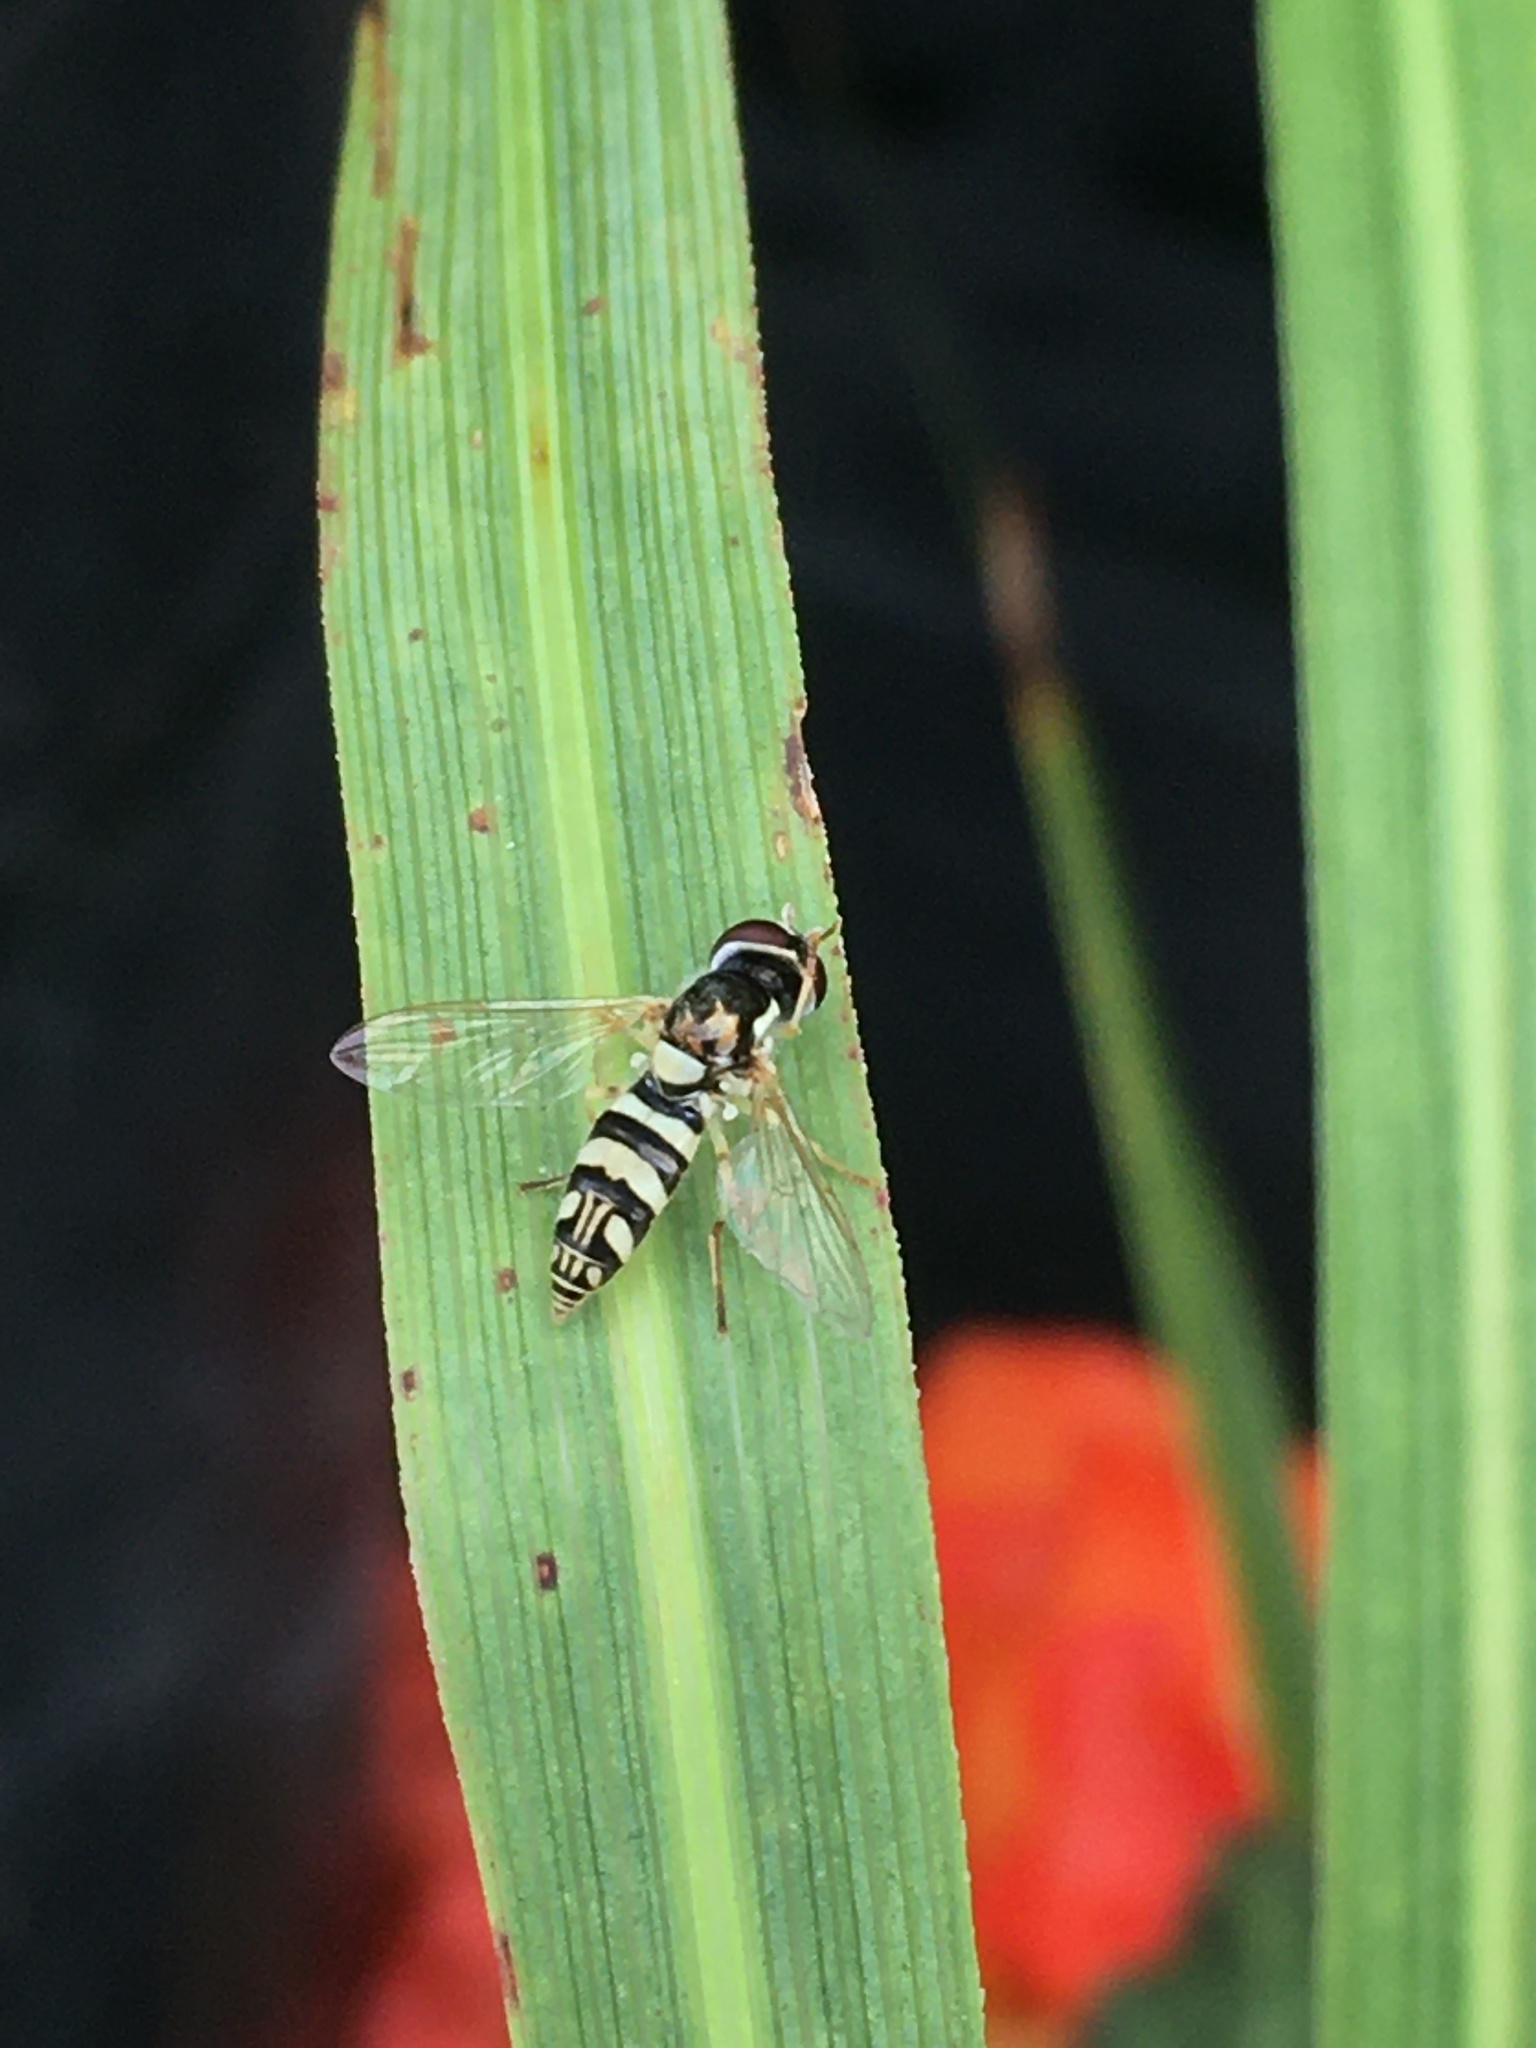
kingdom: Animalia
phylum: Arthropoda
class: Insecta
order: Diptera
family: Syrphidae
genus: Allograpta
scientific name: Allograpta exotica
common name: Syrphid fly
